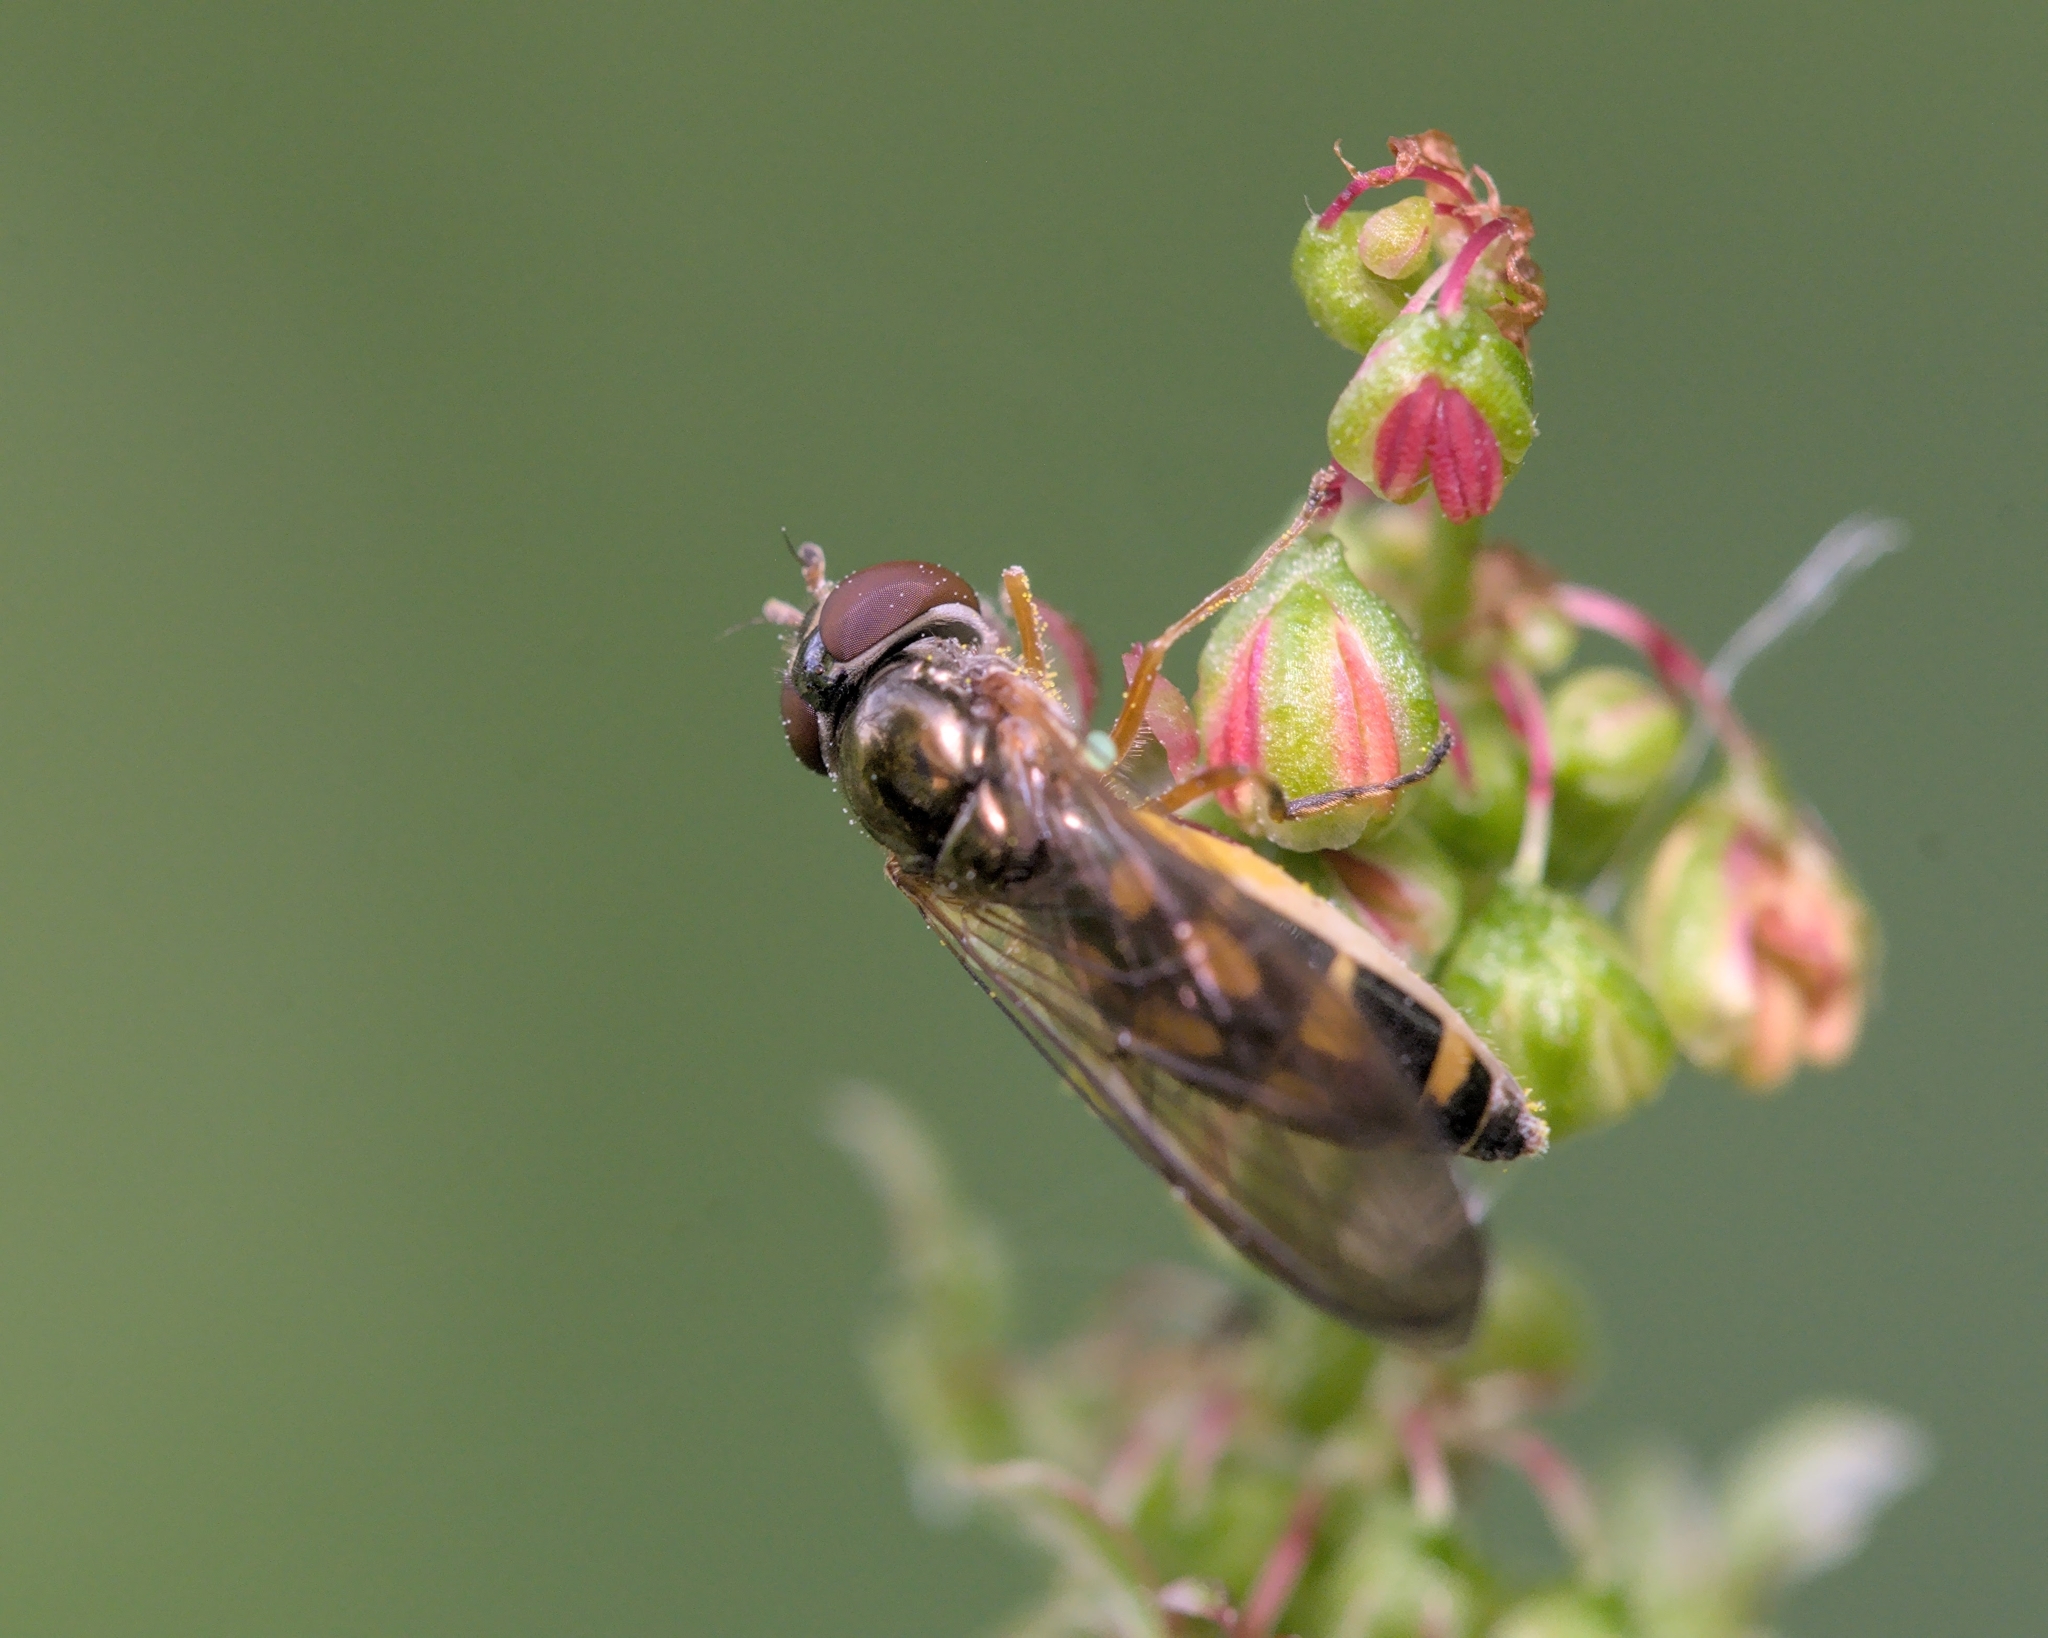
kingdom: Animalia
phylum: Arthropoda
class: Insecta
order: Diptera
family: Syrphidae
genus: Melanostoma
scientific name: Melanostoma scalare
